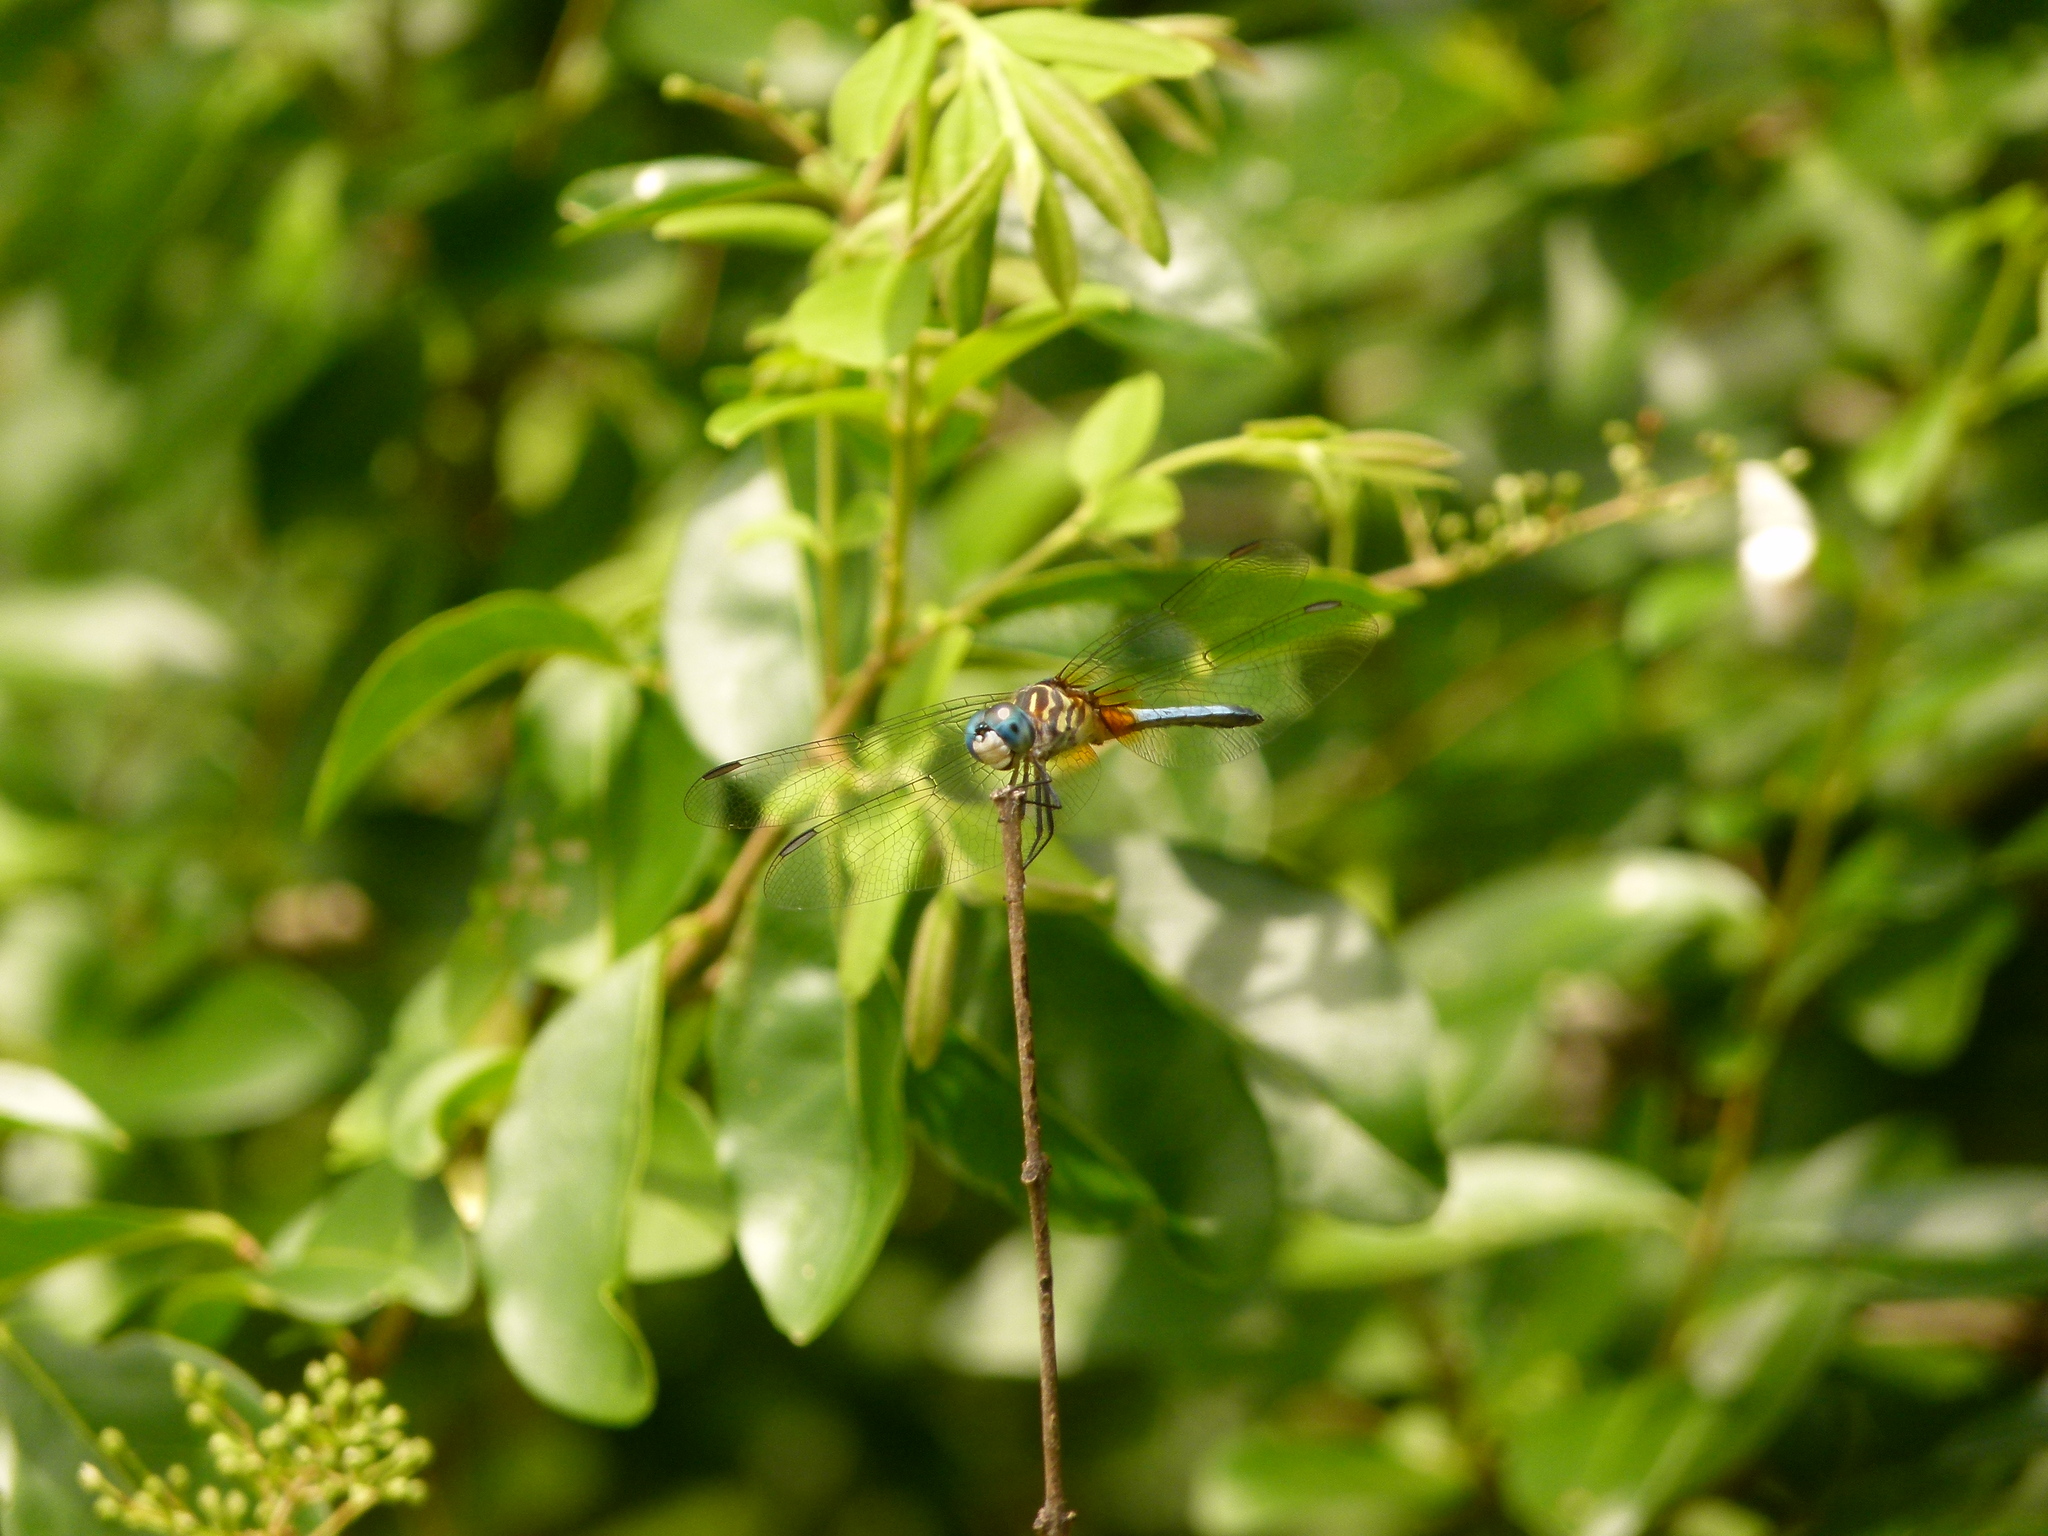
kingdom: Animalia
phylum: Arthropoda
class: Insecta
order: Odonata
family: Libellulidae
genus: Pachydiplax
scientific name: Pachydiplax longipennis
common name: Blue dasher
